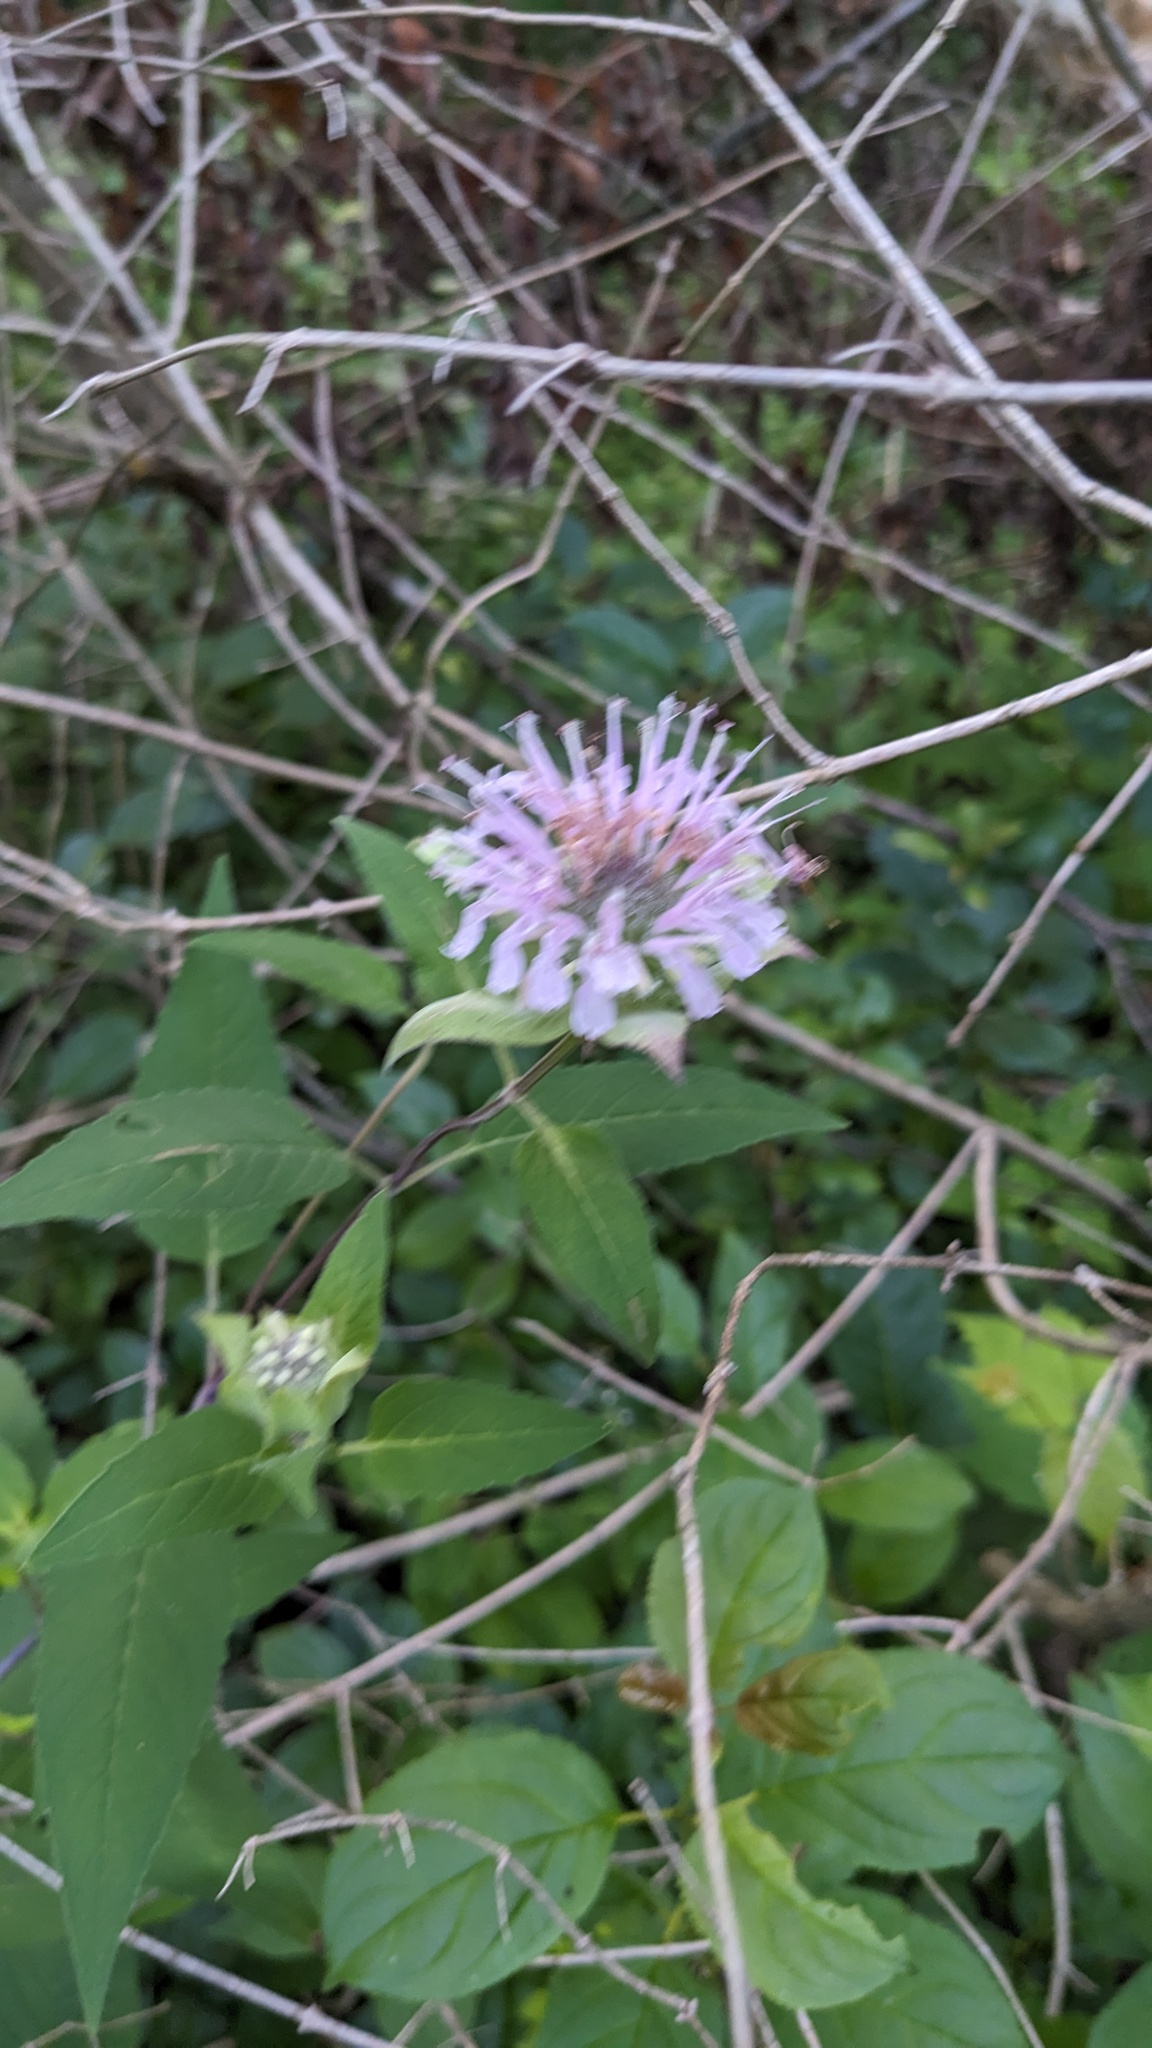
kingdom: Plantae
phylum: Tracheophyta
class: Magnoliopsida
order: Lamiales
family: Lamiaceae
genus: Monarda
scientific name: Monarda fistulosa
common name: Purple beebalm
